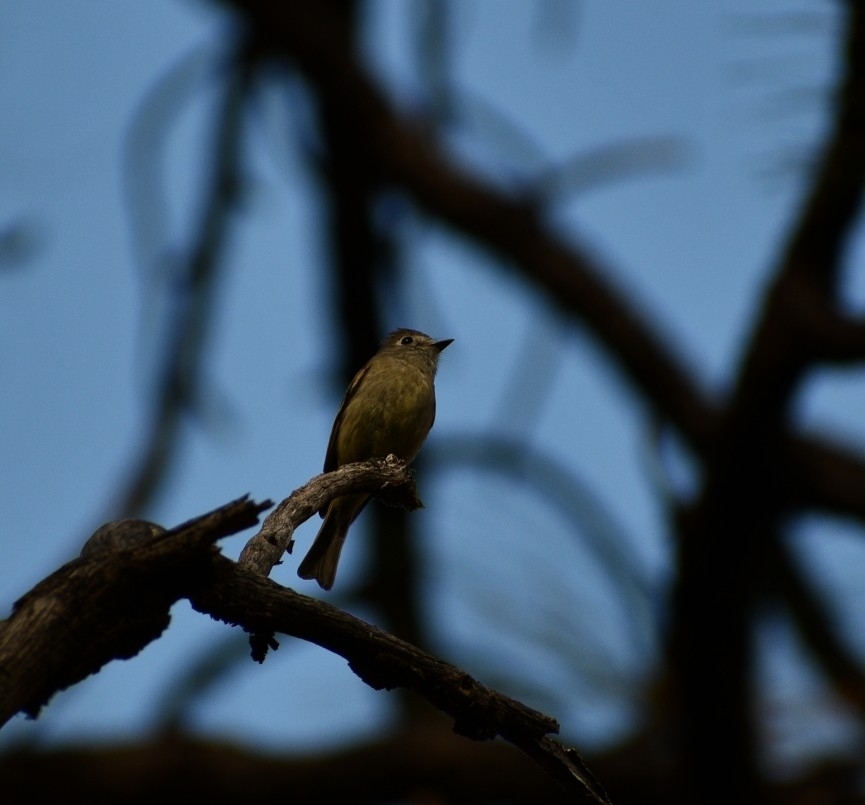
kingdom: Animalia
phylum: Chordata
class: Aves
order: Passeriformes
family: Tyrannidae
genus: Empidonax
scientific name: Empidonax
